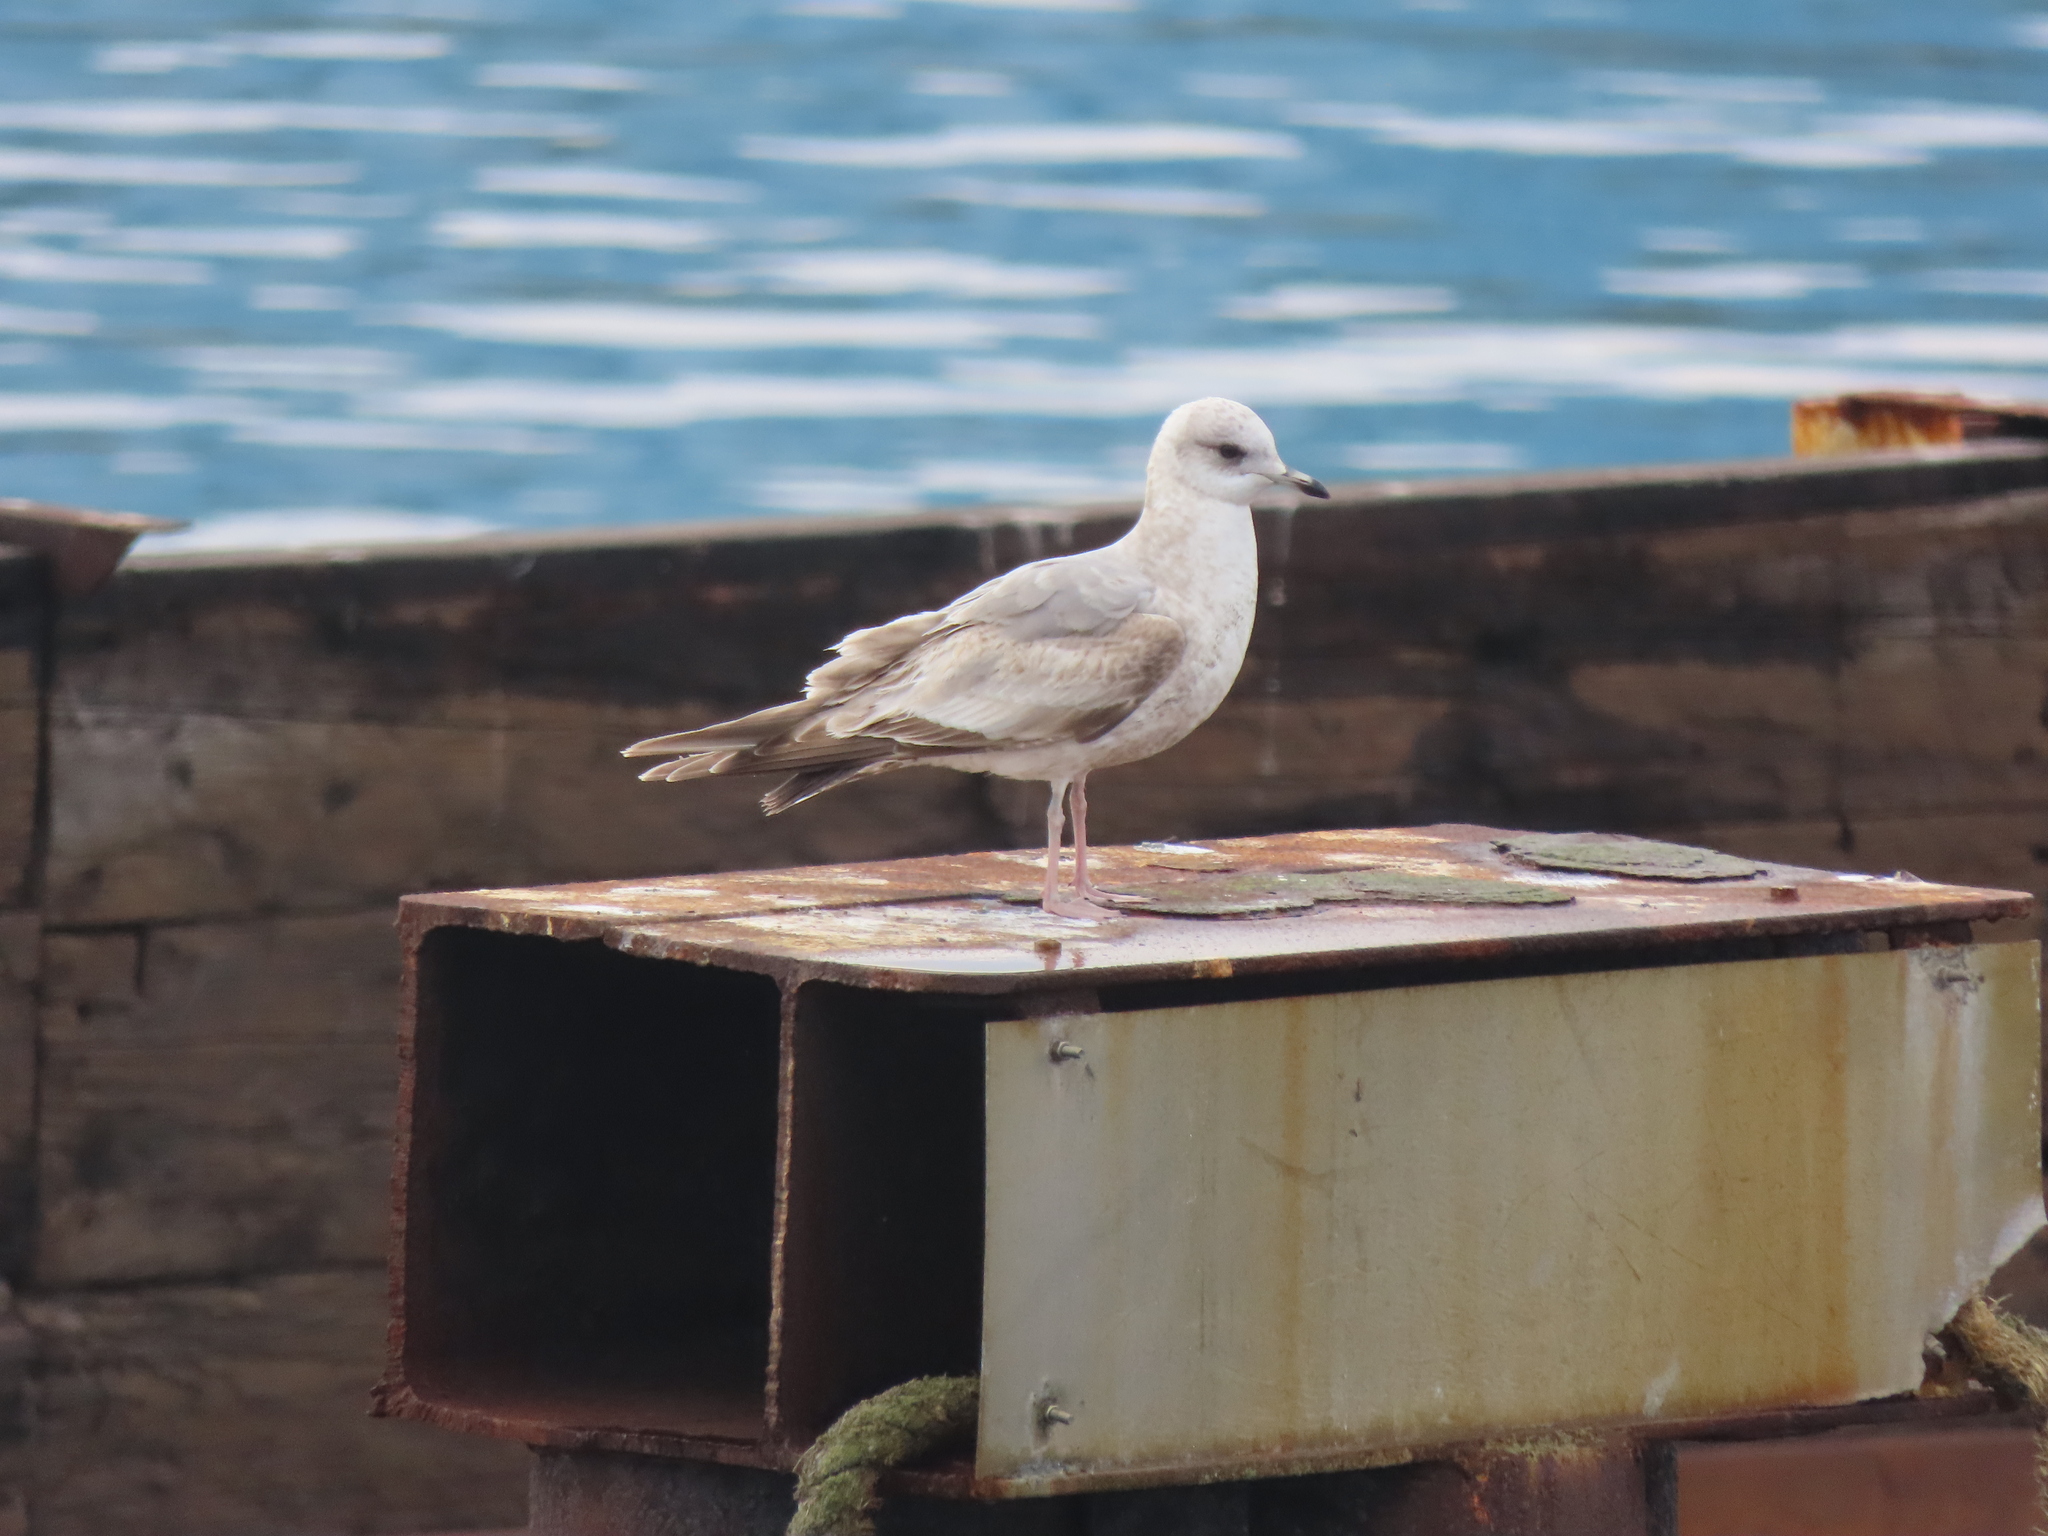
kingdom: Animalia
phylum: Chordata
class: Aves
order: Charadriiformes
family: Laridae
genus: Larus
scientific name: Larus brachyrhynchus
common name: Short-billed gull
